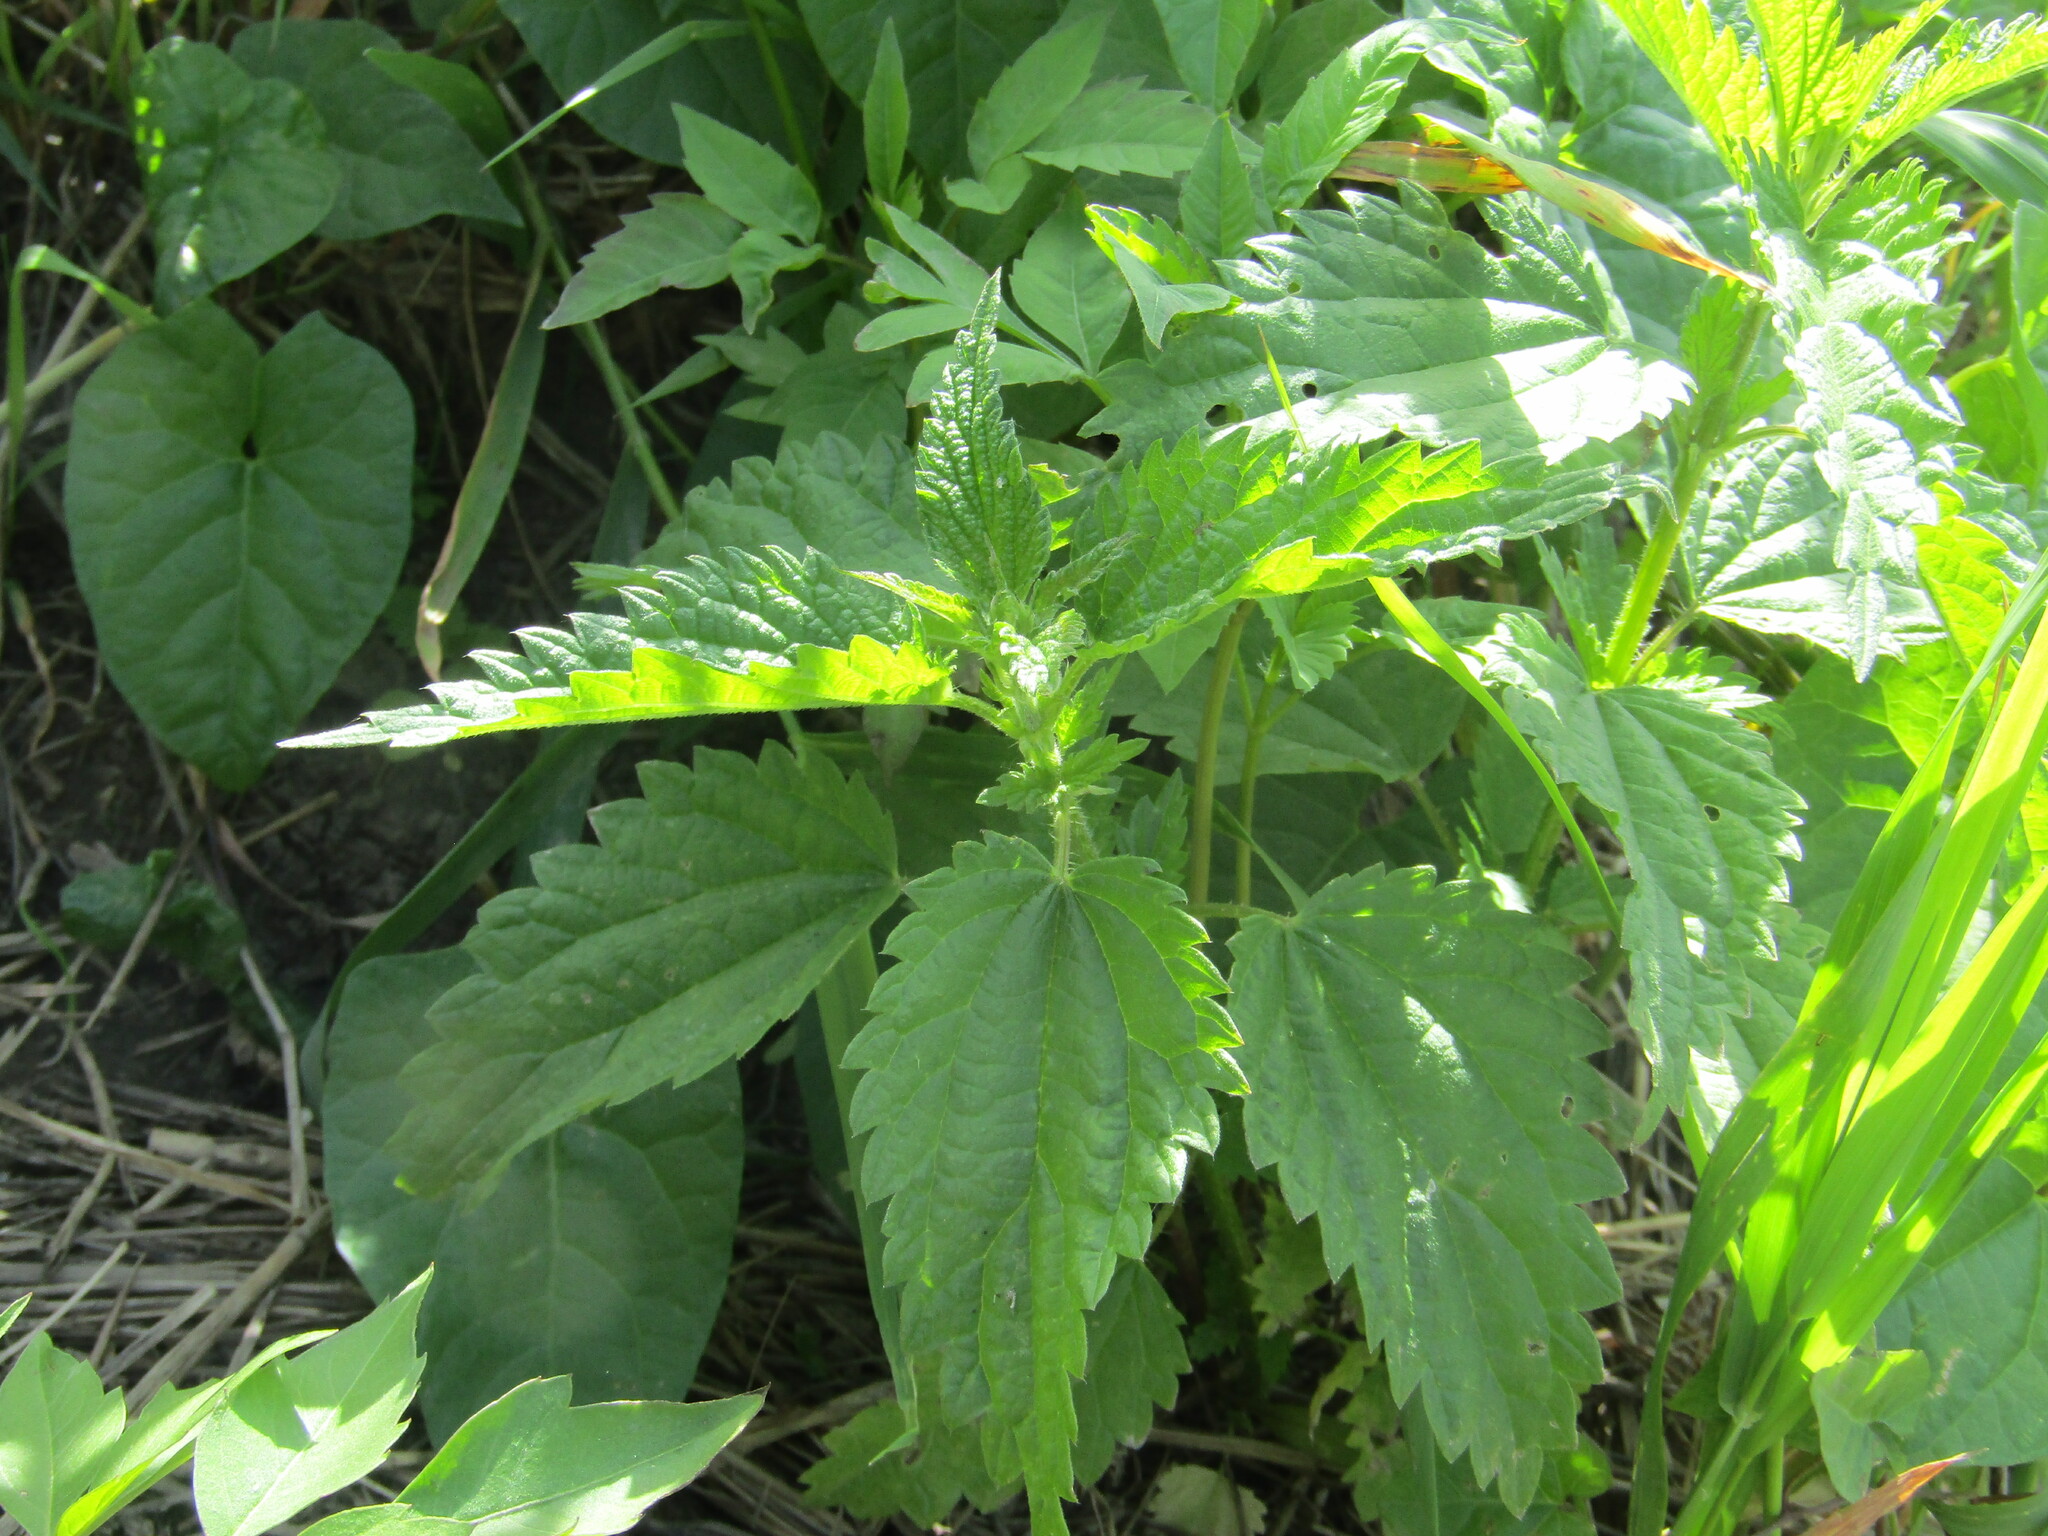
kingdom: Plantae
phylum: Tracheophyta
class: Magnoliopsida
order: Rosales
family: Urticaceae
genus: Urtica
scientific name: Urtica dioica
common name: Common nettle
